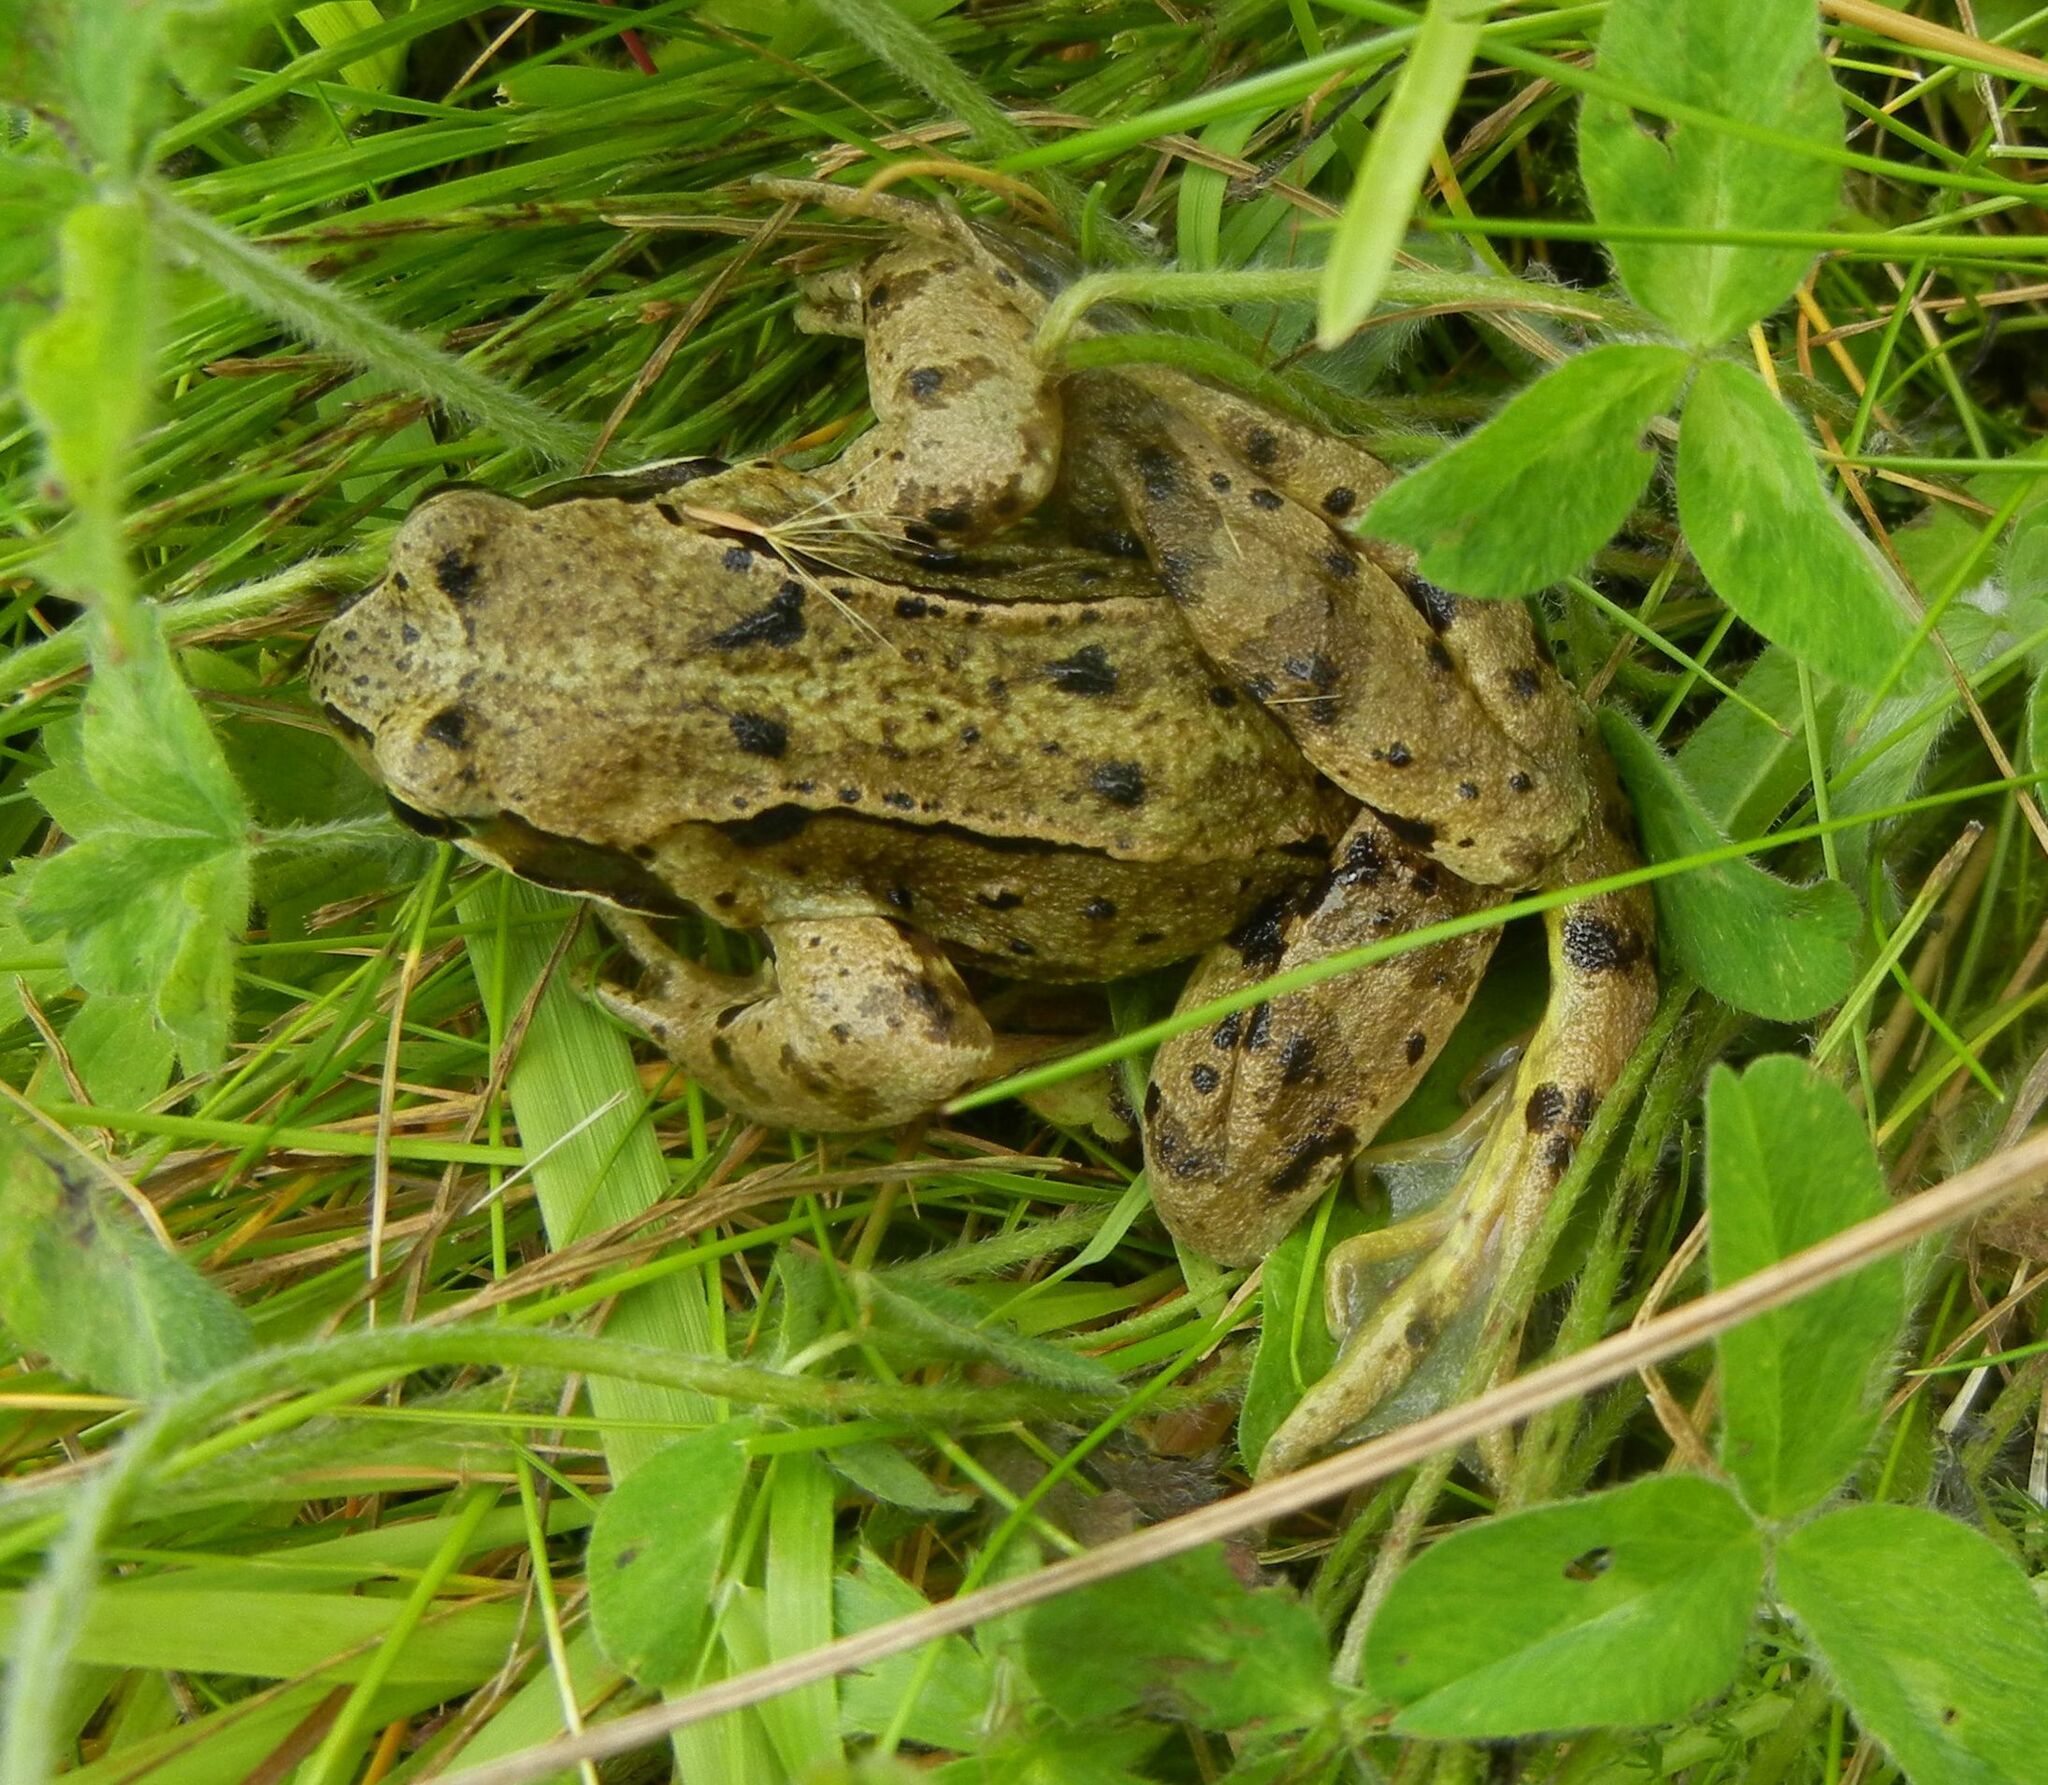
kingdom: Animalia
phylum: Chordata
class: Amphibia
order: Anura
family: Ranidae
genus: Rana
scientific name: Rana temporaria
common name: Common frog
